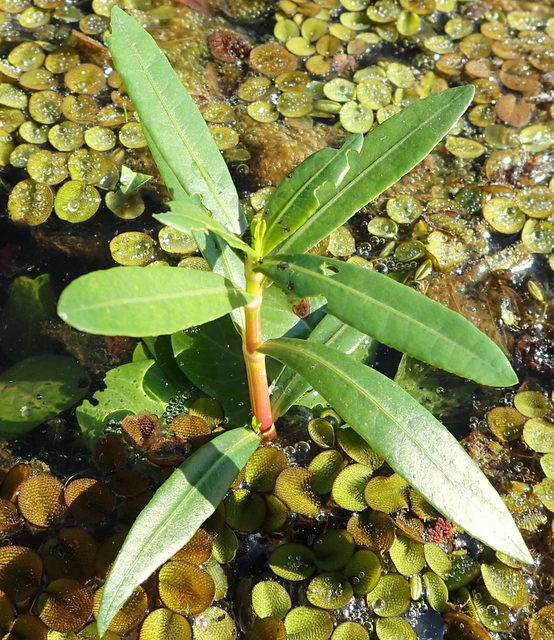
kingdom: Plantae
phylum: Tracheophyta
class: Magnoliopsida
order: Caryophyllales
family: Amaranthaceae
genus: Alternanthera
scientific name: Alternanthera philoxeroides
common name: Alligatorweed
